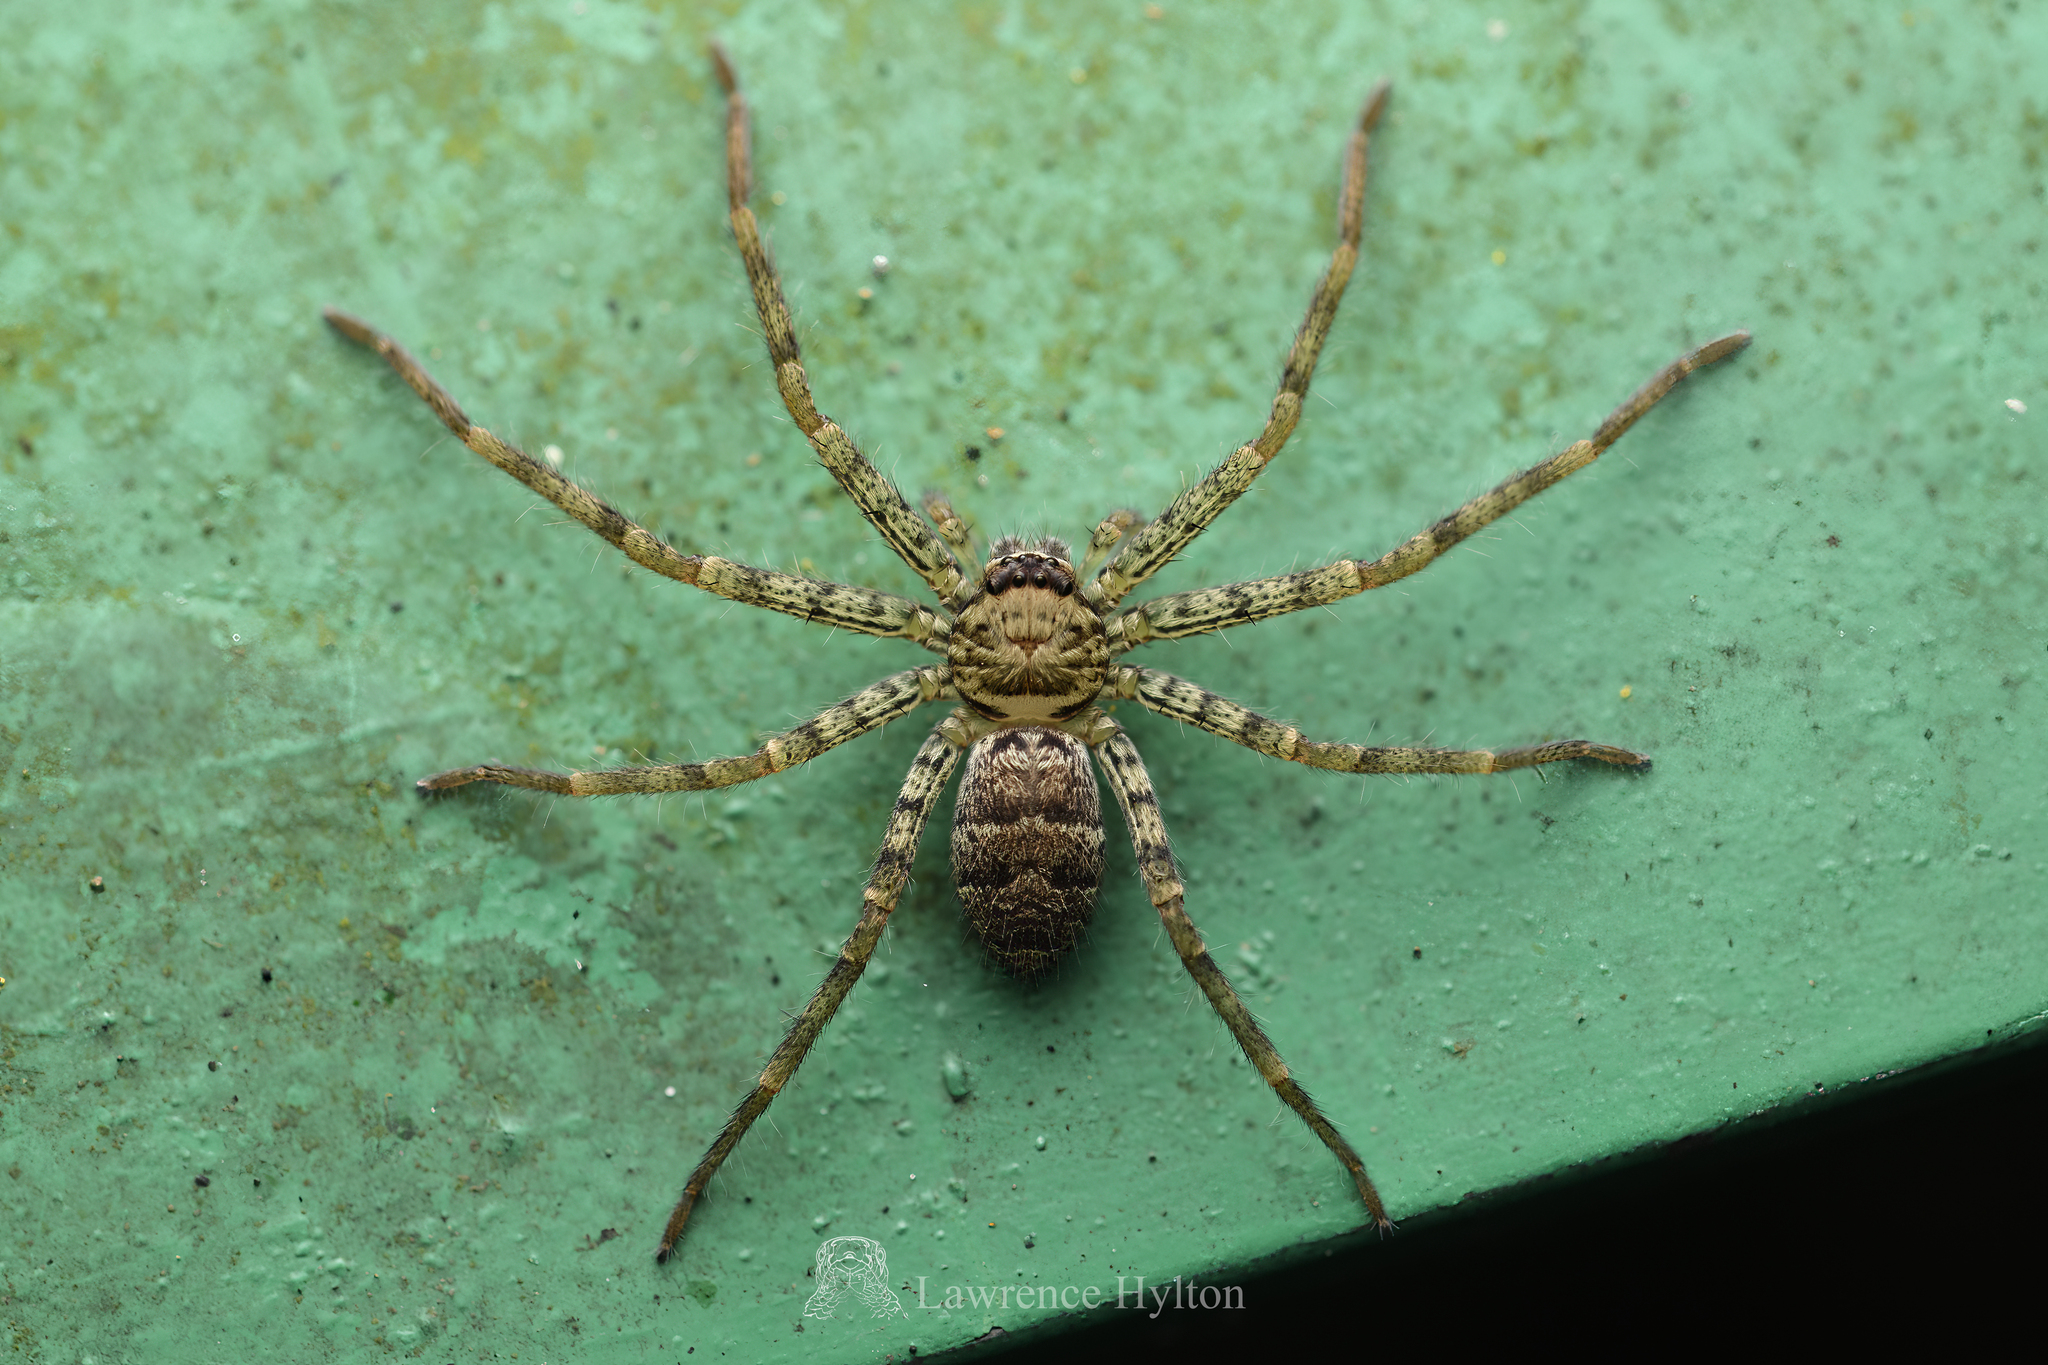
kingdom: Animalia
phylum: Arthropoda
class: Arachnida
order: Araneae
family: Sparassidae
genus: Heteropoda
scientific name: Heteropoda venatoria
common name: Huntsman spider
